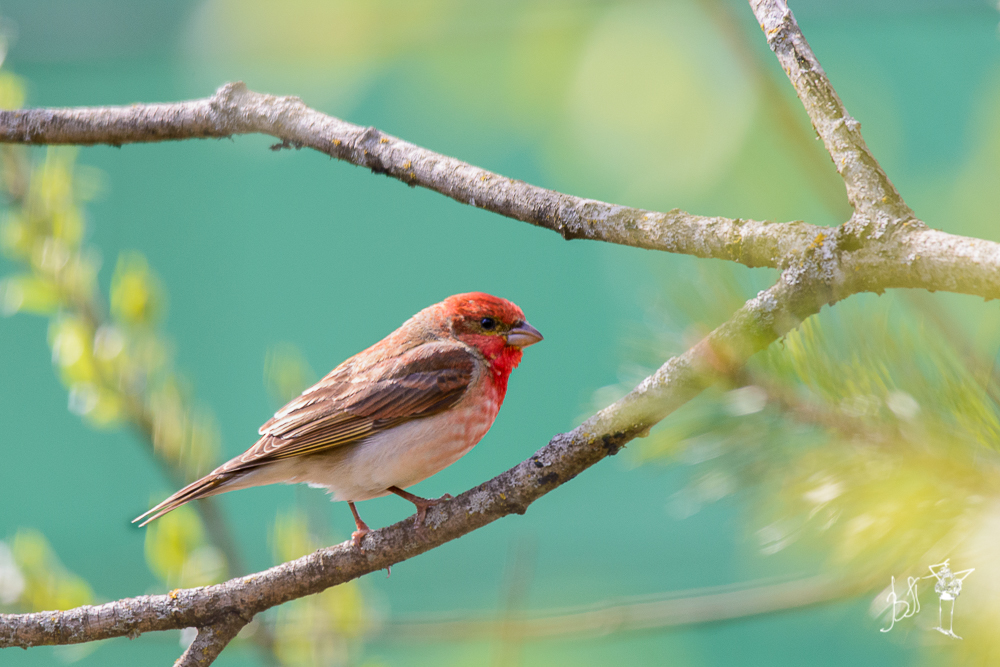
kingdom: Animalia
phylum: Chordata
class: Aves
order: Passeriformes
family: Fringillidae
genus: Carpodacus
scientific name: Carpodacus erythrinus
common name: Common rosefinch
